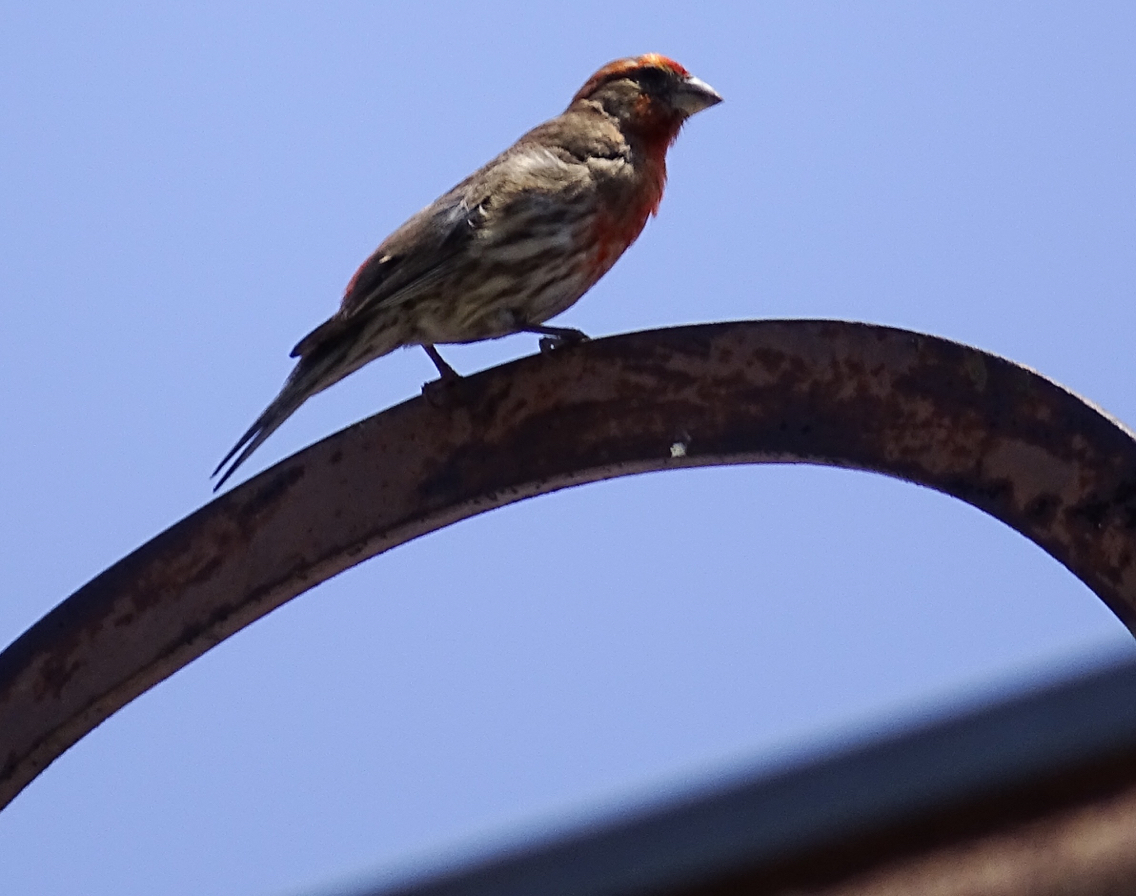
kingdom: Animalia
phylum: Chordata
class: Aves
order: Passeriformes
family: Fringillidae
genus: Haemorhous
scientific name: Haemorhous mexicanus
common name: House finch
